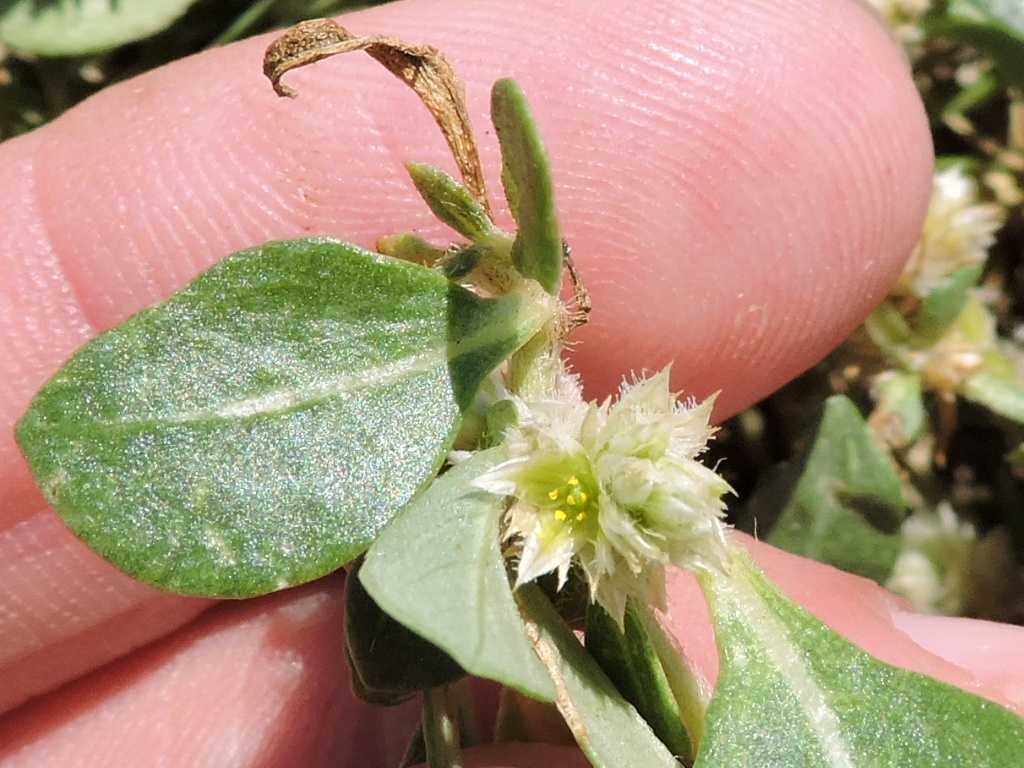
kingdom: Plantae
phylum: Tracheophyta
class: Magnoliopsida
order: Caryophyllales
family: Amaranthaceae
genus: Alternanthera
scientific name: Alternanthera caracasana
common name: Washerwoman
